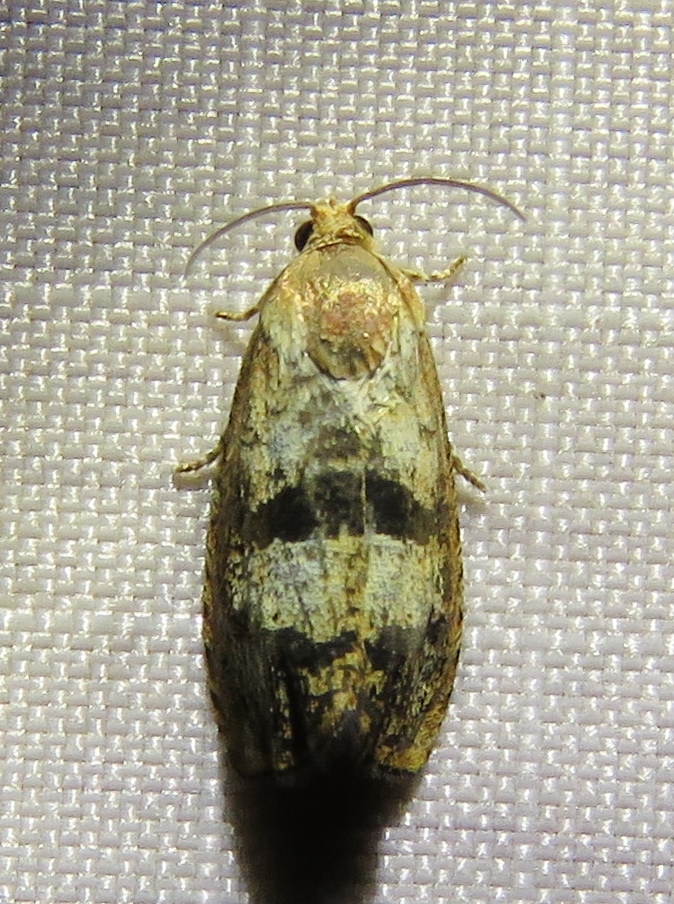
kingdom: Animalia
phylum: Arthropoda
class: Insecta
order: Lepidoptera
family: Tortricidae
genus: Cydia
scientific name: Cydia latiferreana
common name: Filbertworm moth
